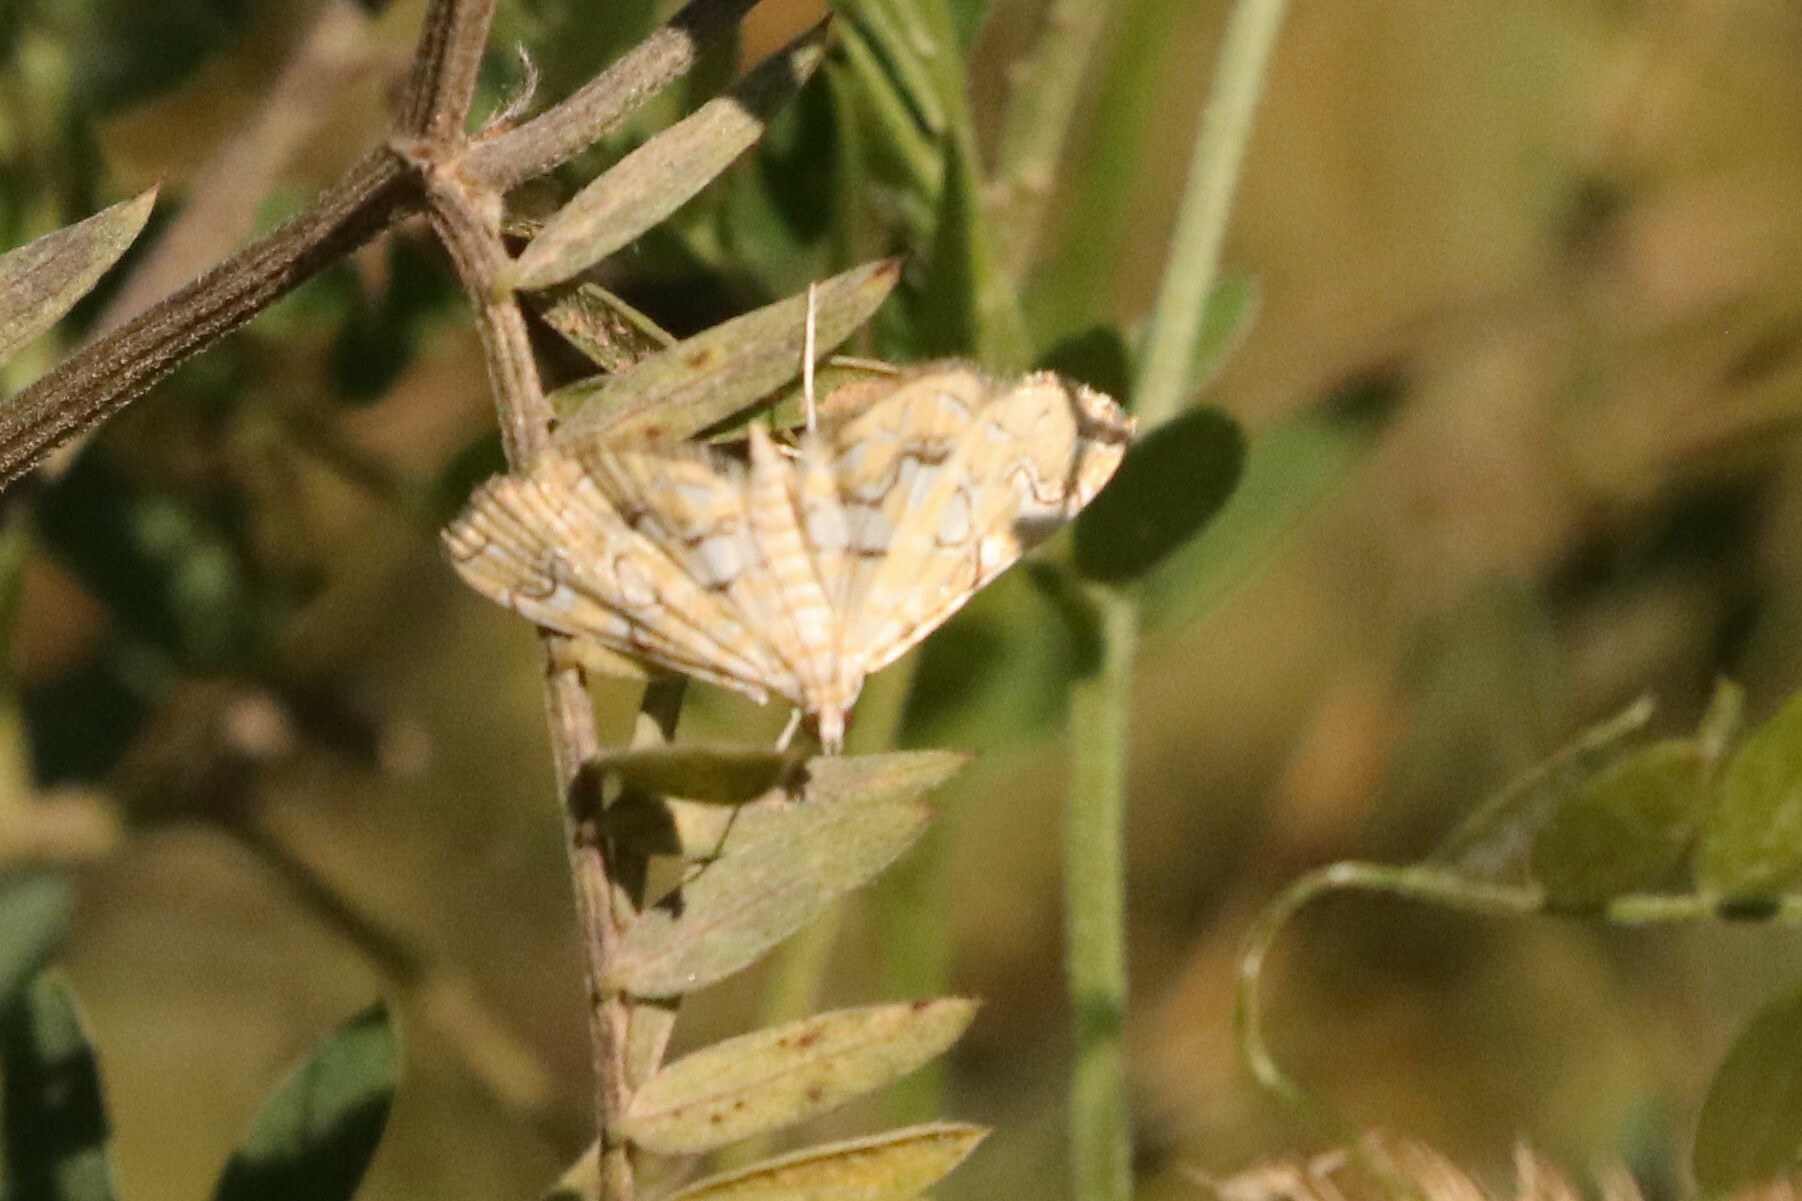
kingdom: Animalia
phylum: Arthropoda
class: Insecta
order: Lepidoptera
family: Crambidae
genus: Elophila
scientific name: Elophila icciusalis
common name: Pondside pyralid moth
